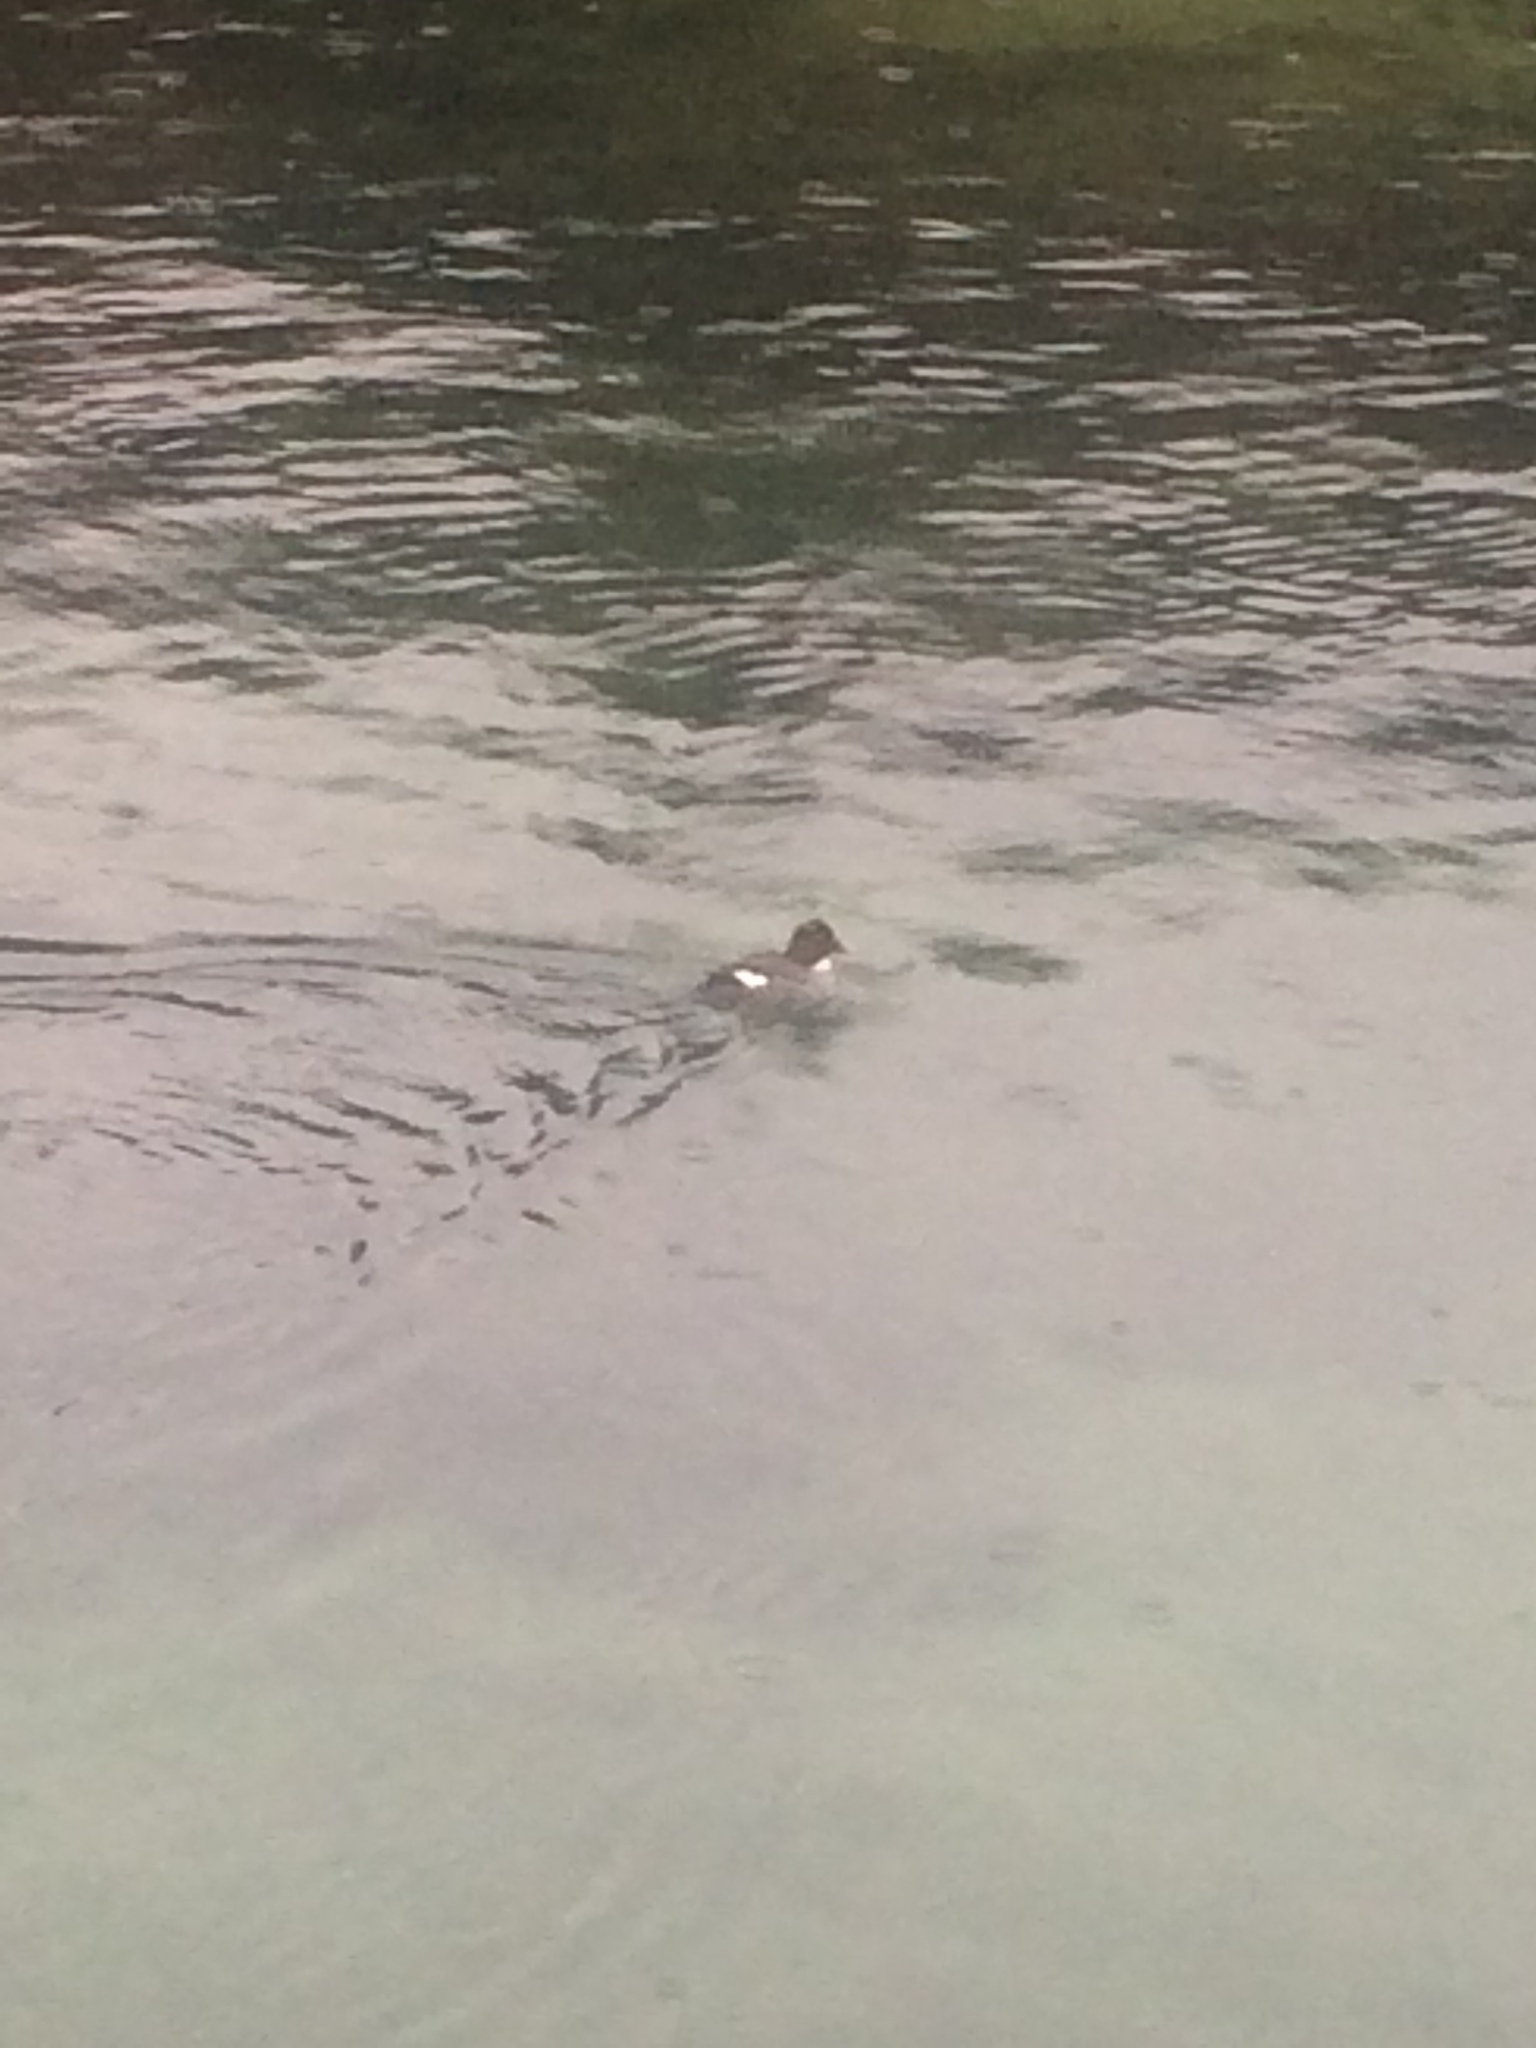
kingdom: Animalia
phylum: Chordata
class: Aves
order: Anseriformes
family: Anatidae
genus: Bucephala
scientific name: Bucephala clangula
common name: Common goldeneye
